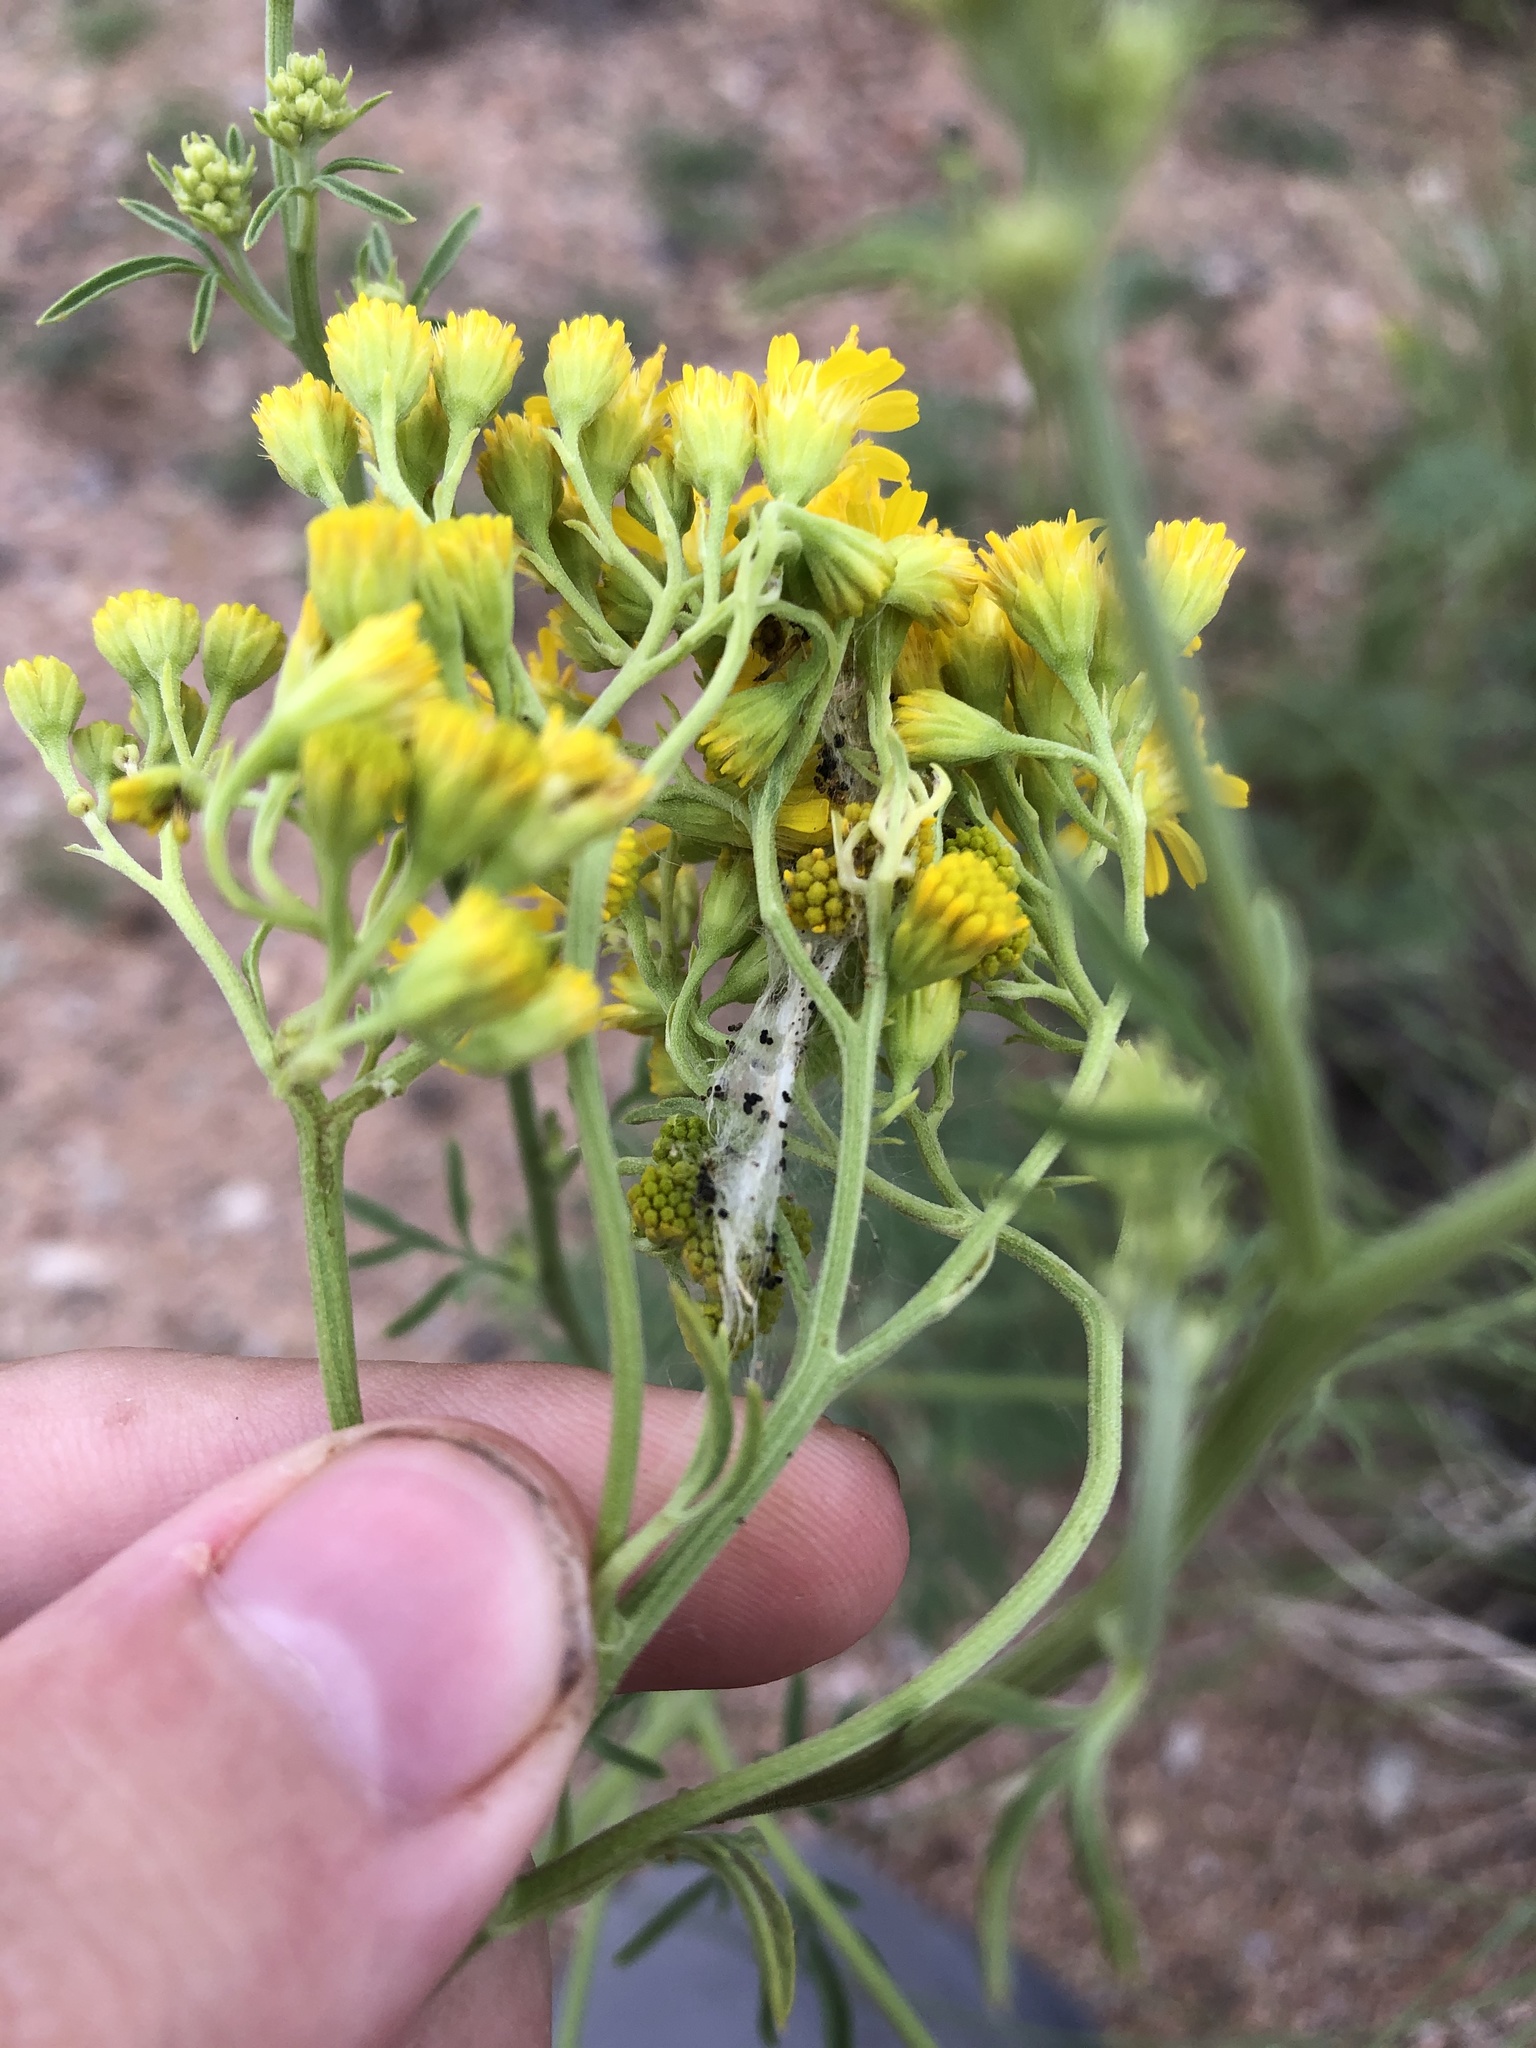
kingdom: Plantae
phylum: Tracheophyta
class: Magnoliopsida
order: Asterales
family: Asteraceae
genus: Hymenothrix
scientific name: Hymenothrix wislizeni
